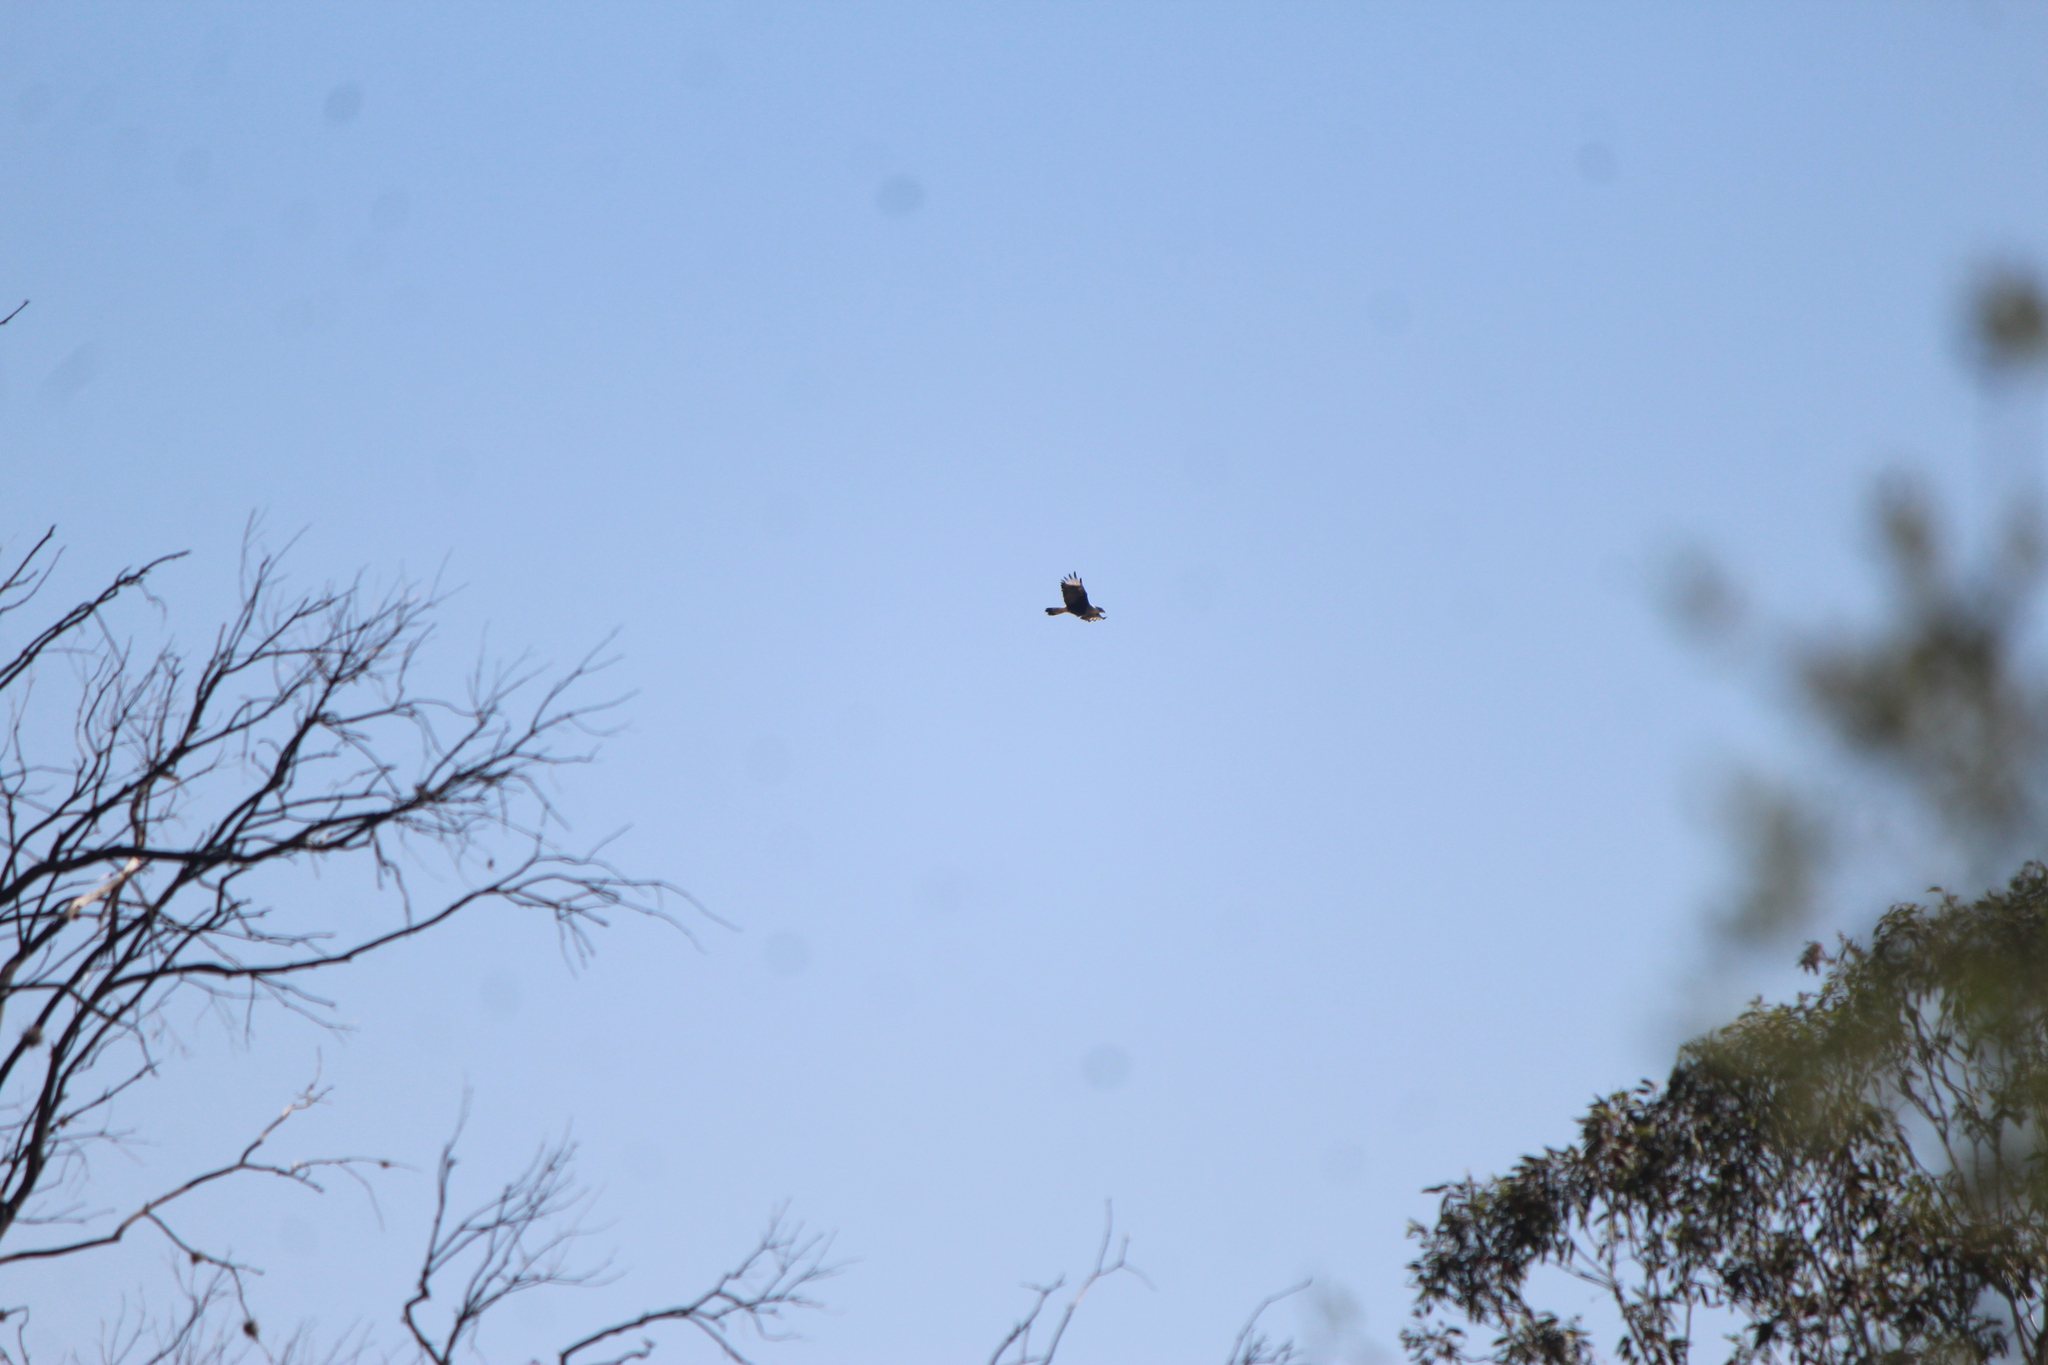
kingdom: Animalia
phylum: Chordata
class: Aves
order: Falconiformes
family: Falconidae
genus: Caracara
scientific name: Caracara plancus
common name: Southern caracara
